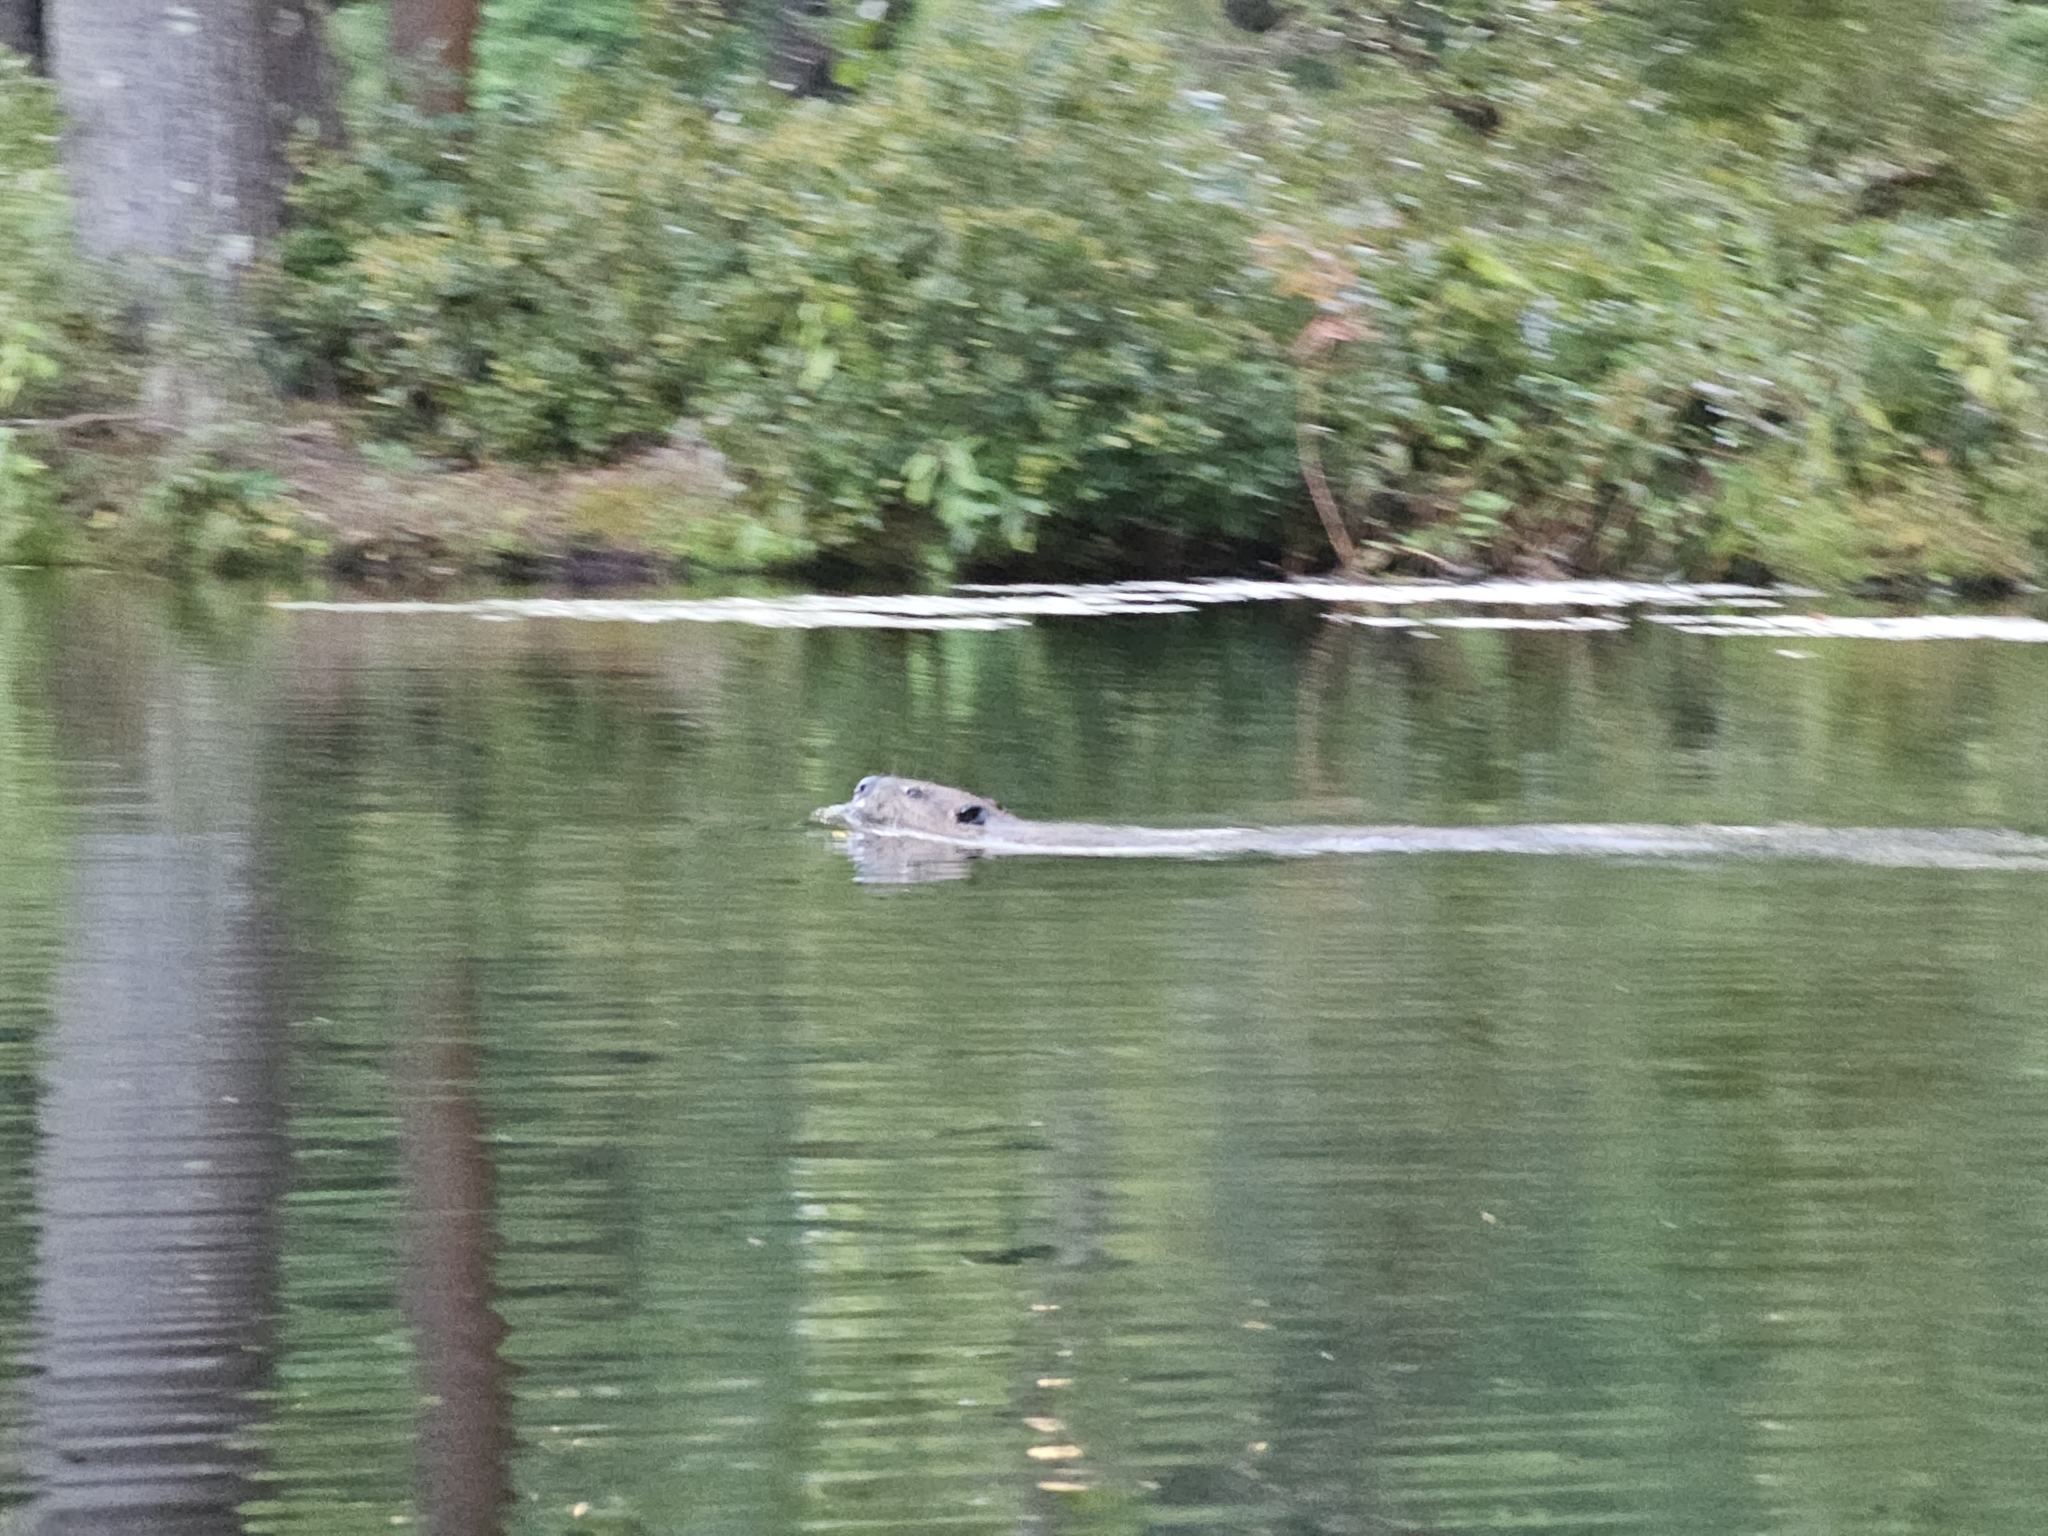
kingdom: Animalia
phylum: Chordata
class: Mammalia
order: Rodentia
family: Castoridae
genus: Castor
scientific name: Castor canadensis
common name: American beaver
